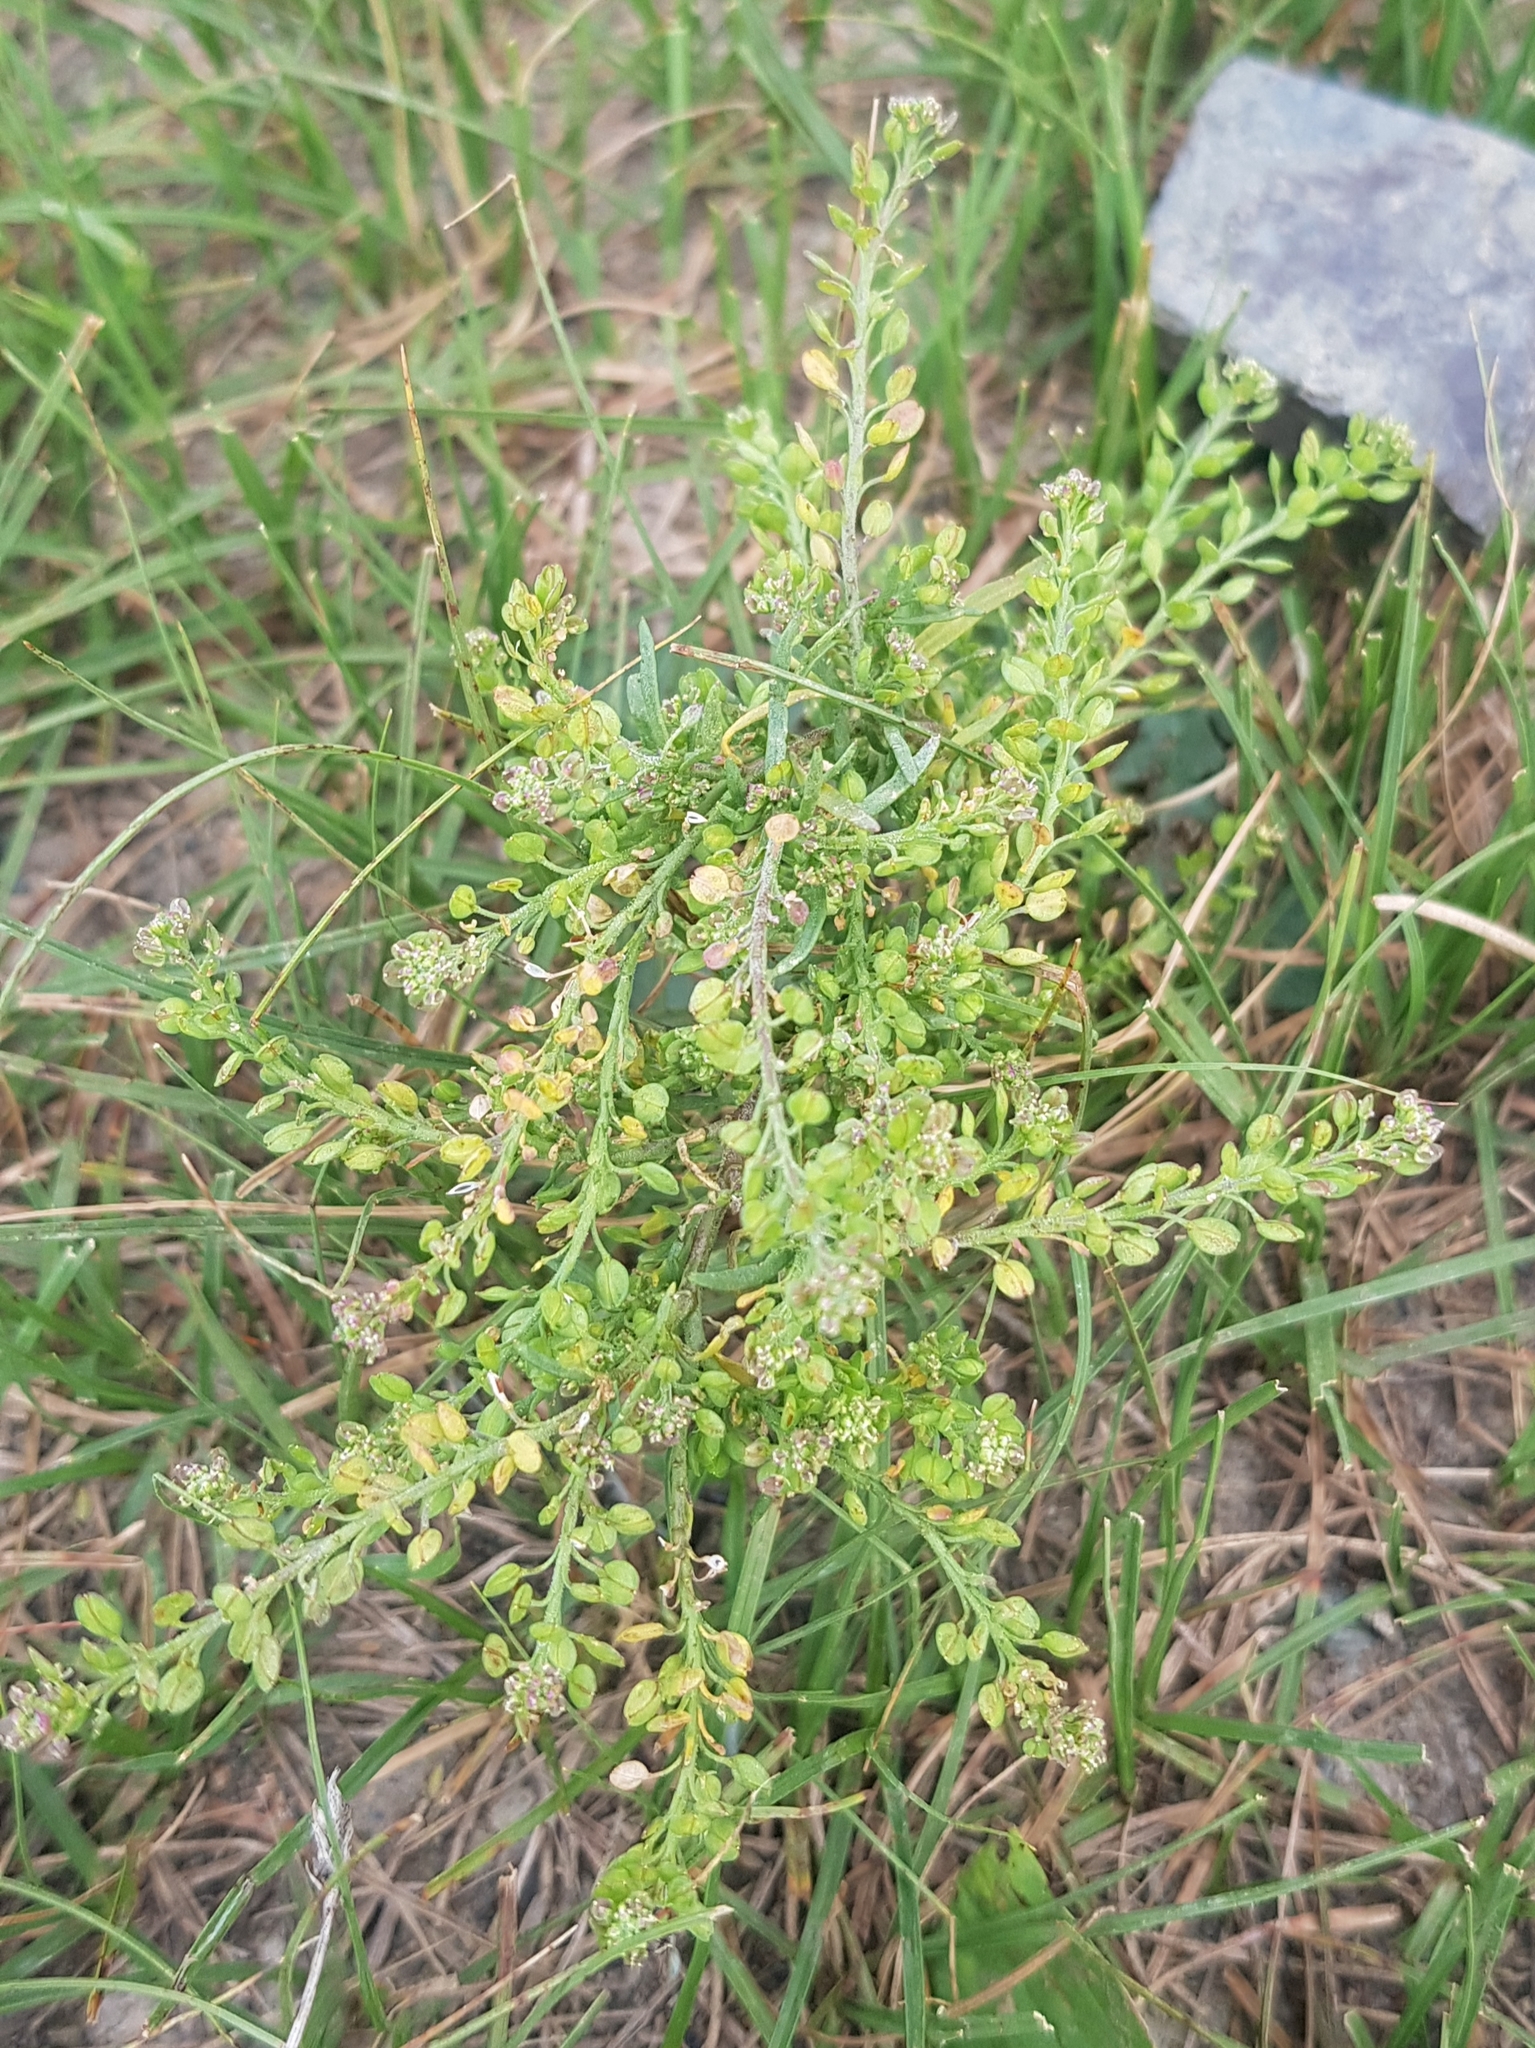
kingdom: Plantae
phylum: Tracheophyta
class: Magnoliopsida
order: Brassicales
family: Brassicaceae
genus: Lepidium
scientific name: Lepidium densiflorum
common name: Miner's pepperwort
